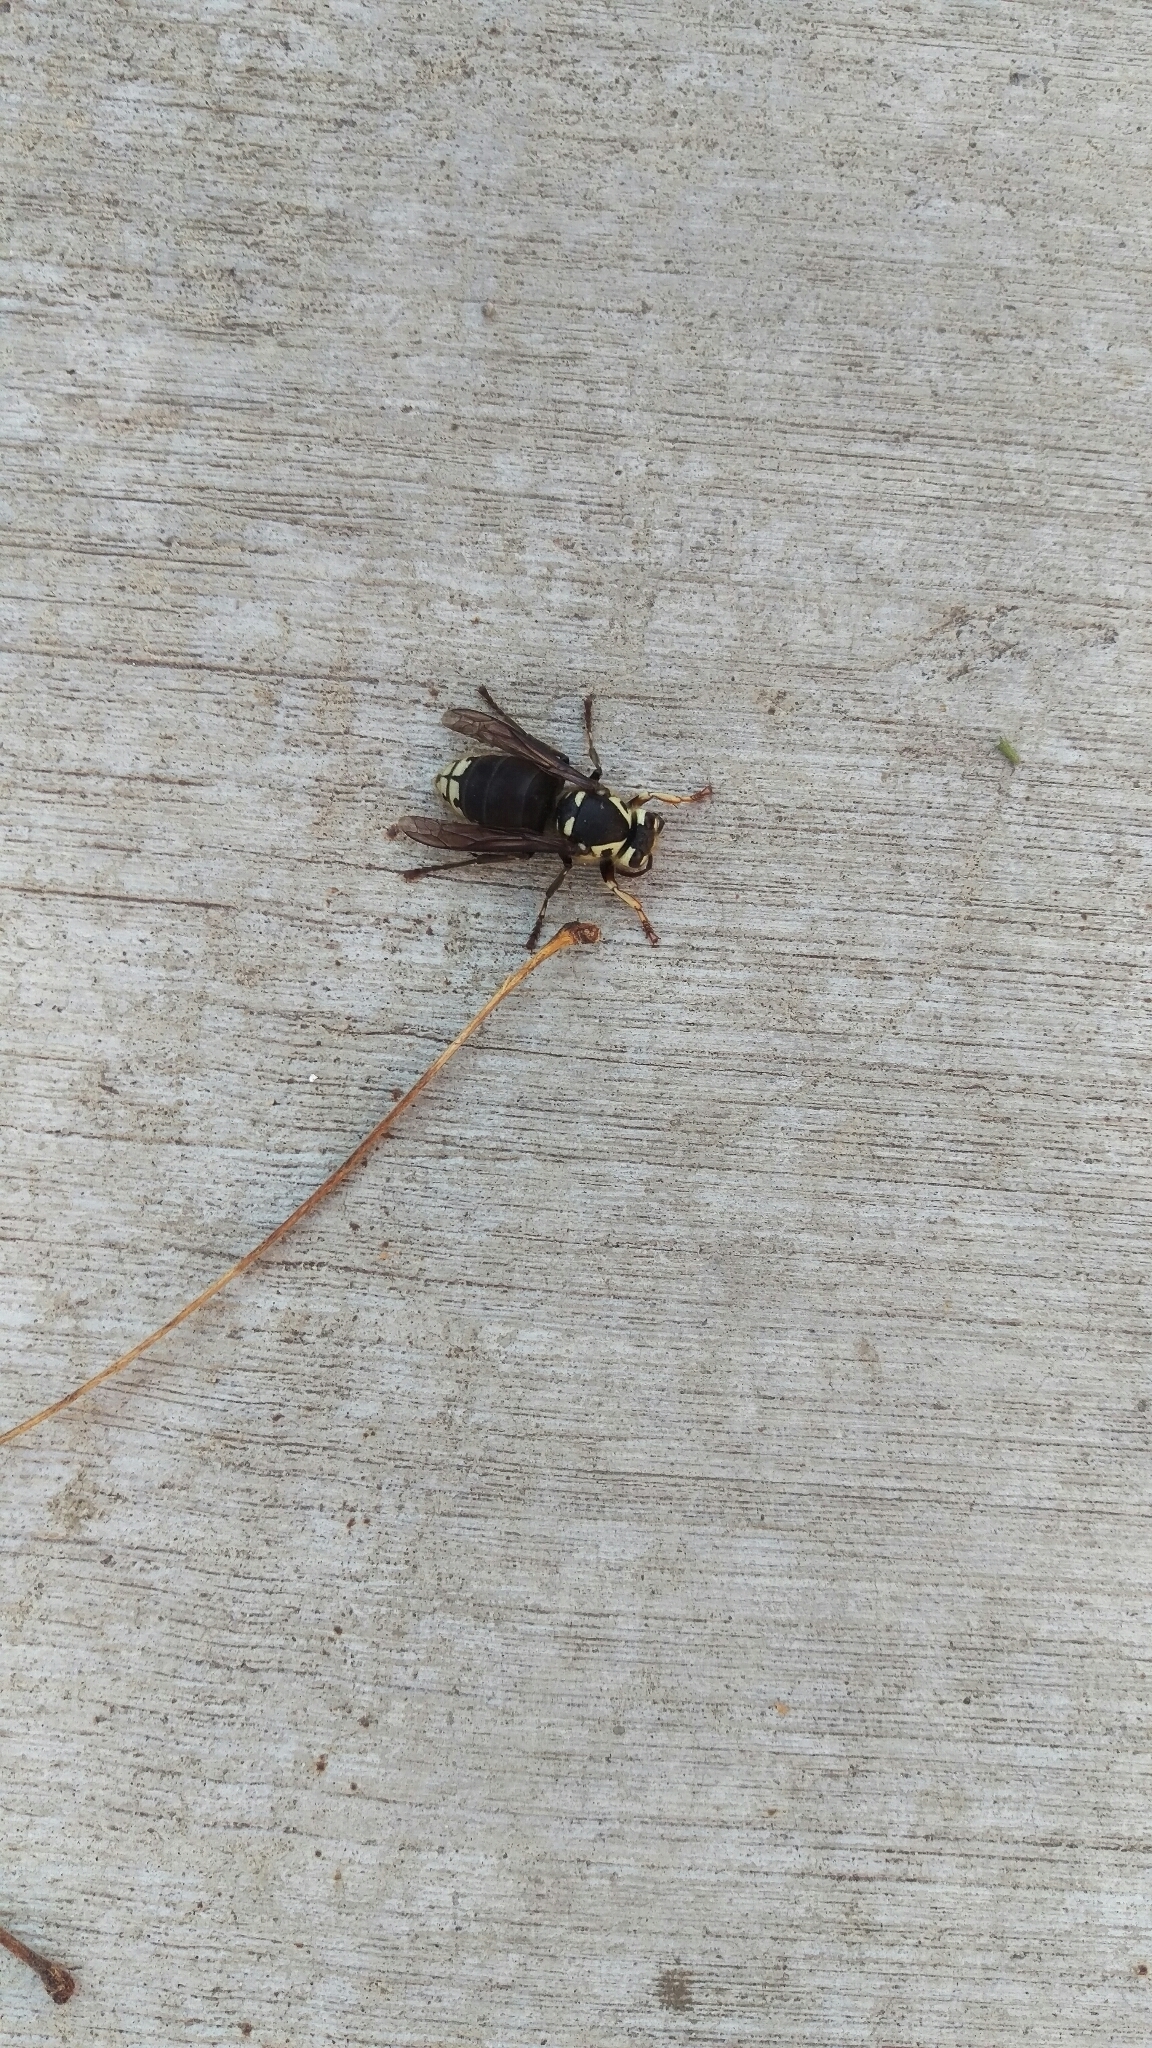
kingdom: Animalia
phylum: Arthropoda
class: Insecta
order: Hymenoptera
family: Vespidae
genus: Dolichovespula
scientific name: Dolichovespula maculata
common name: Bald-faced hornet
